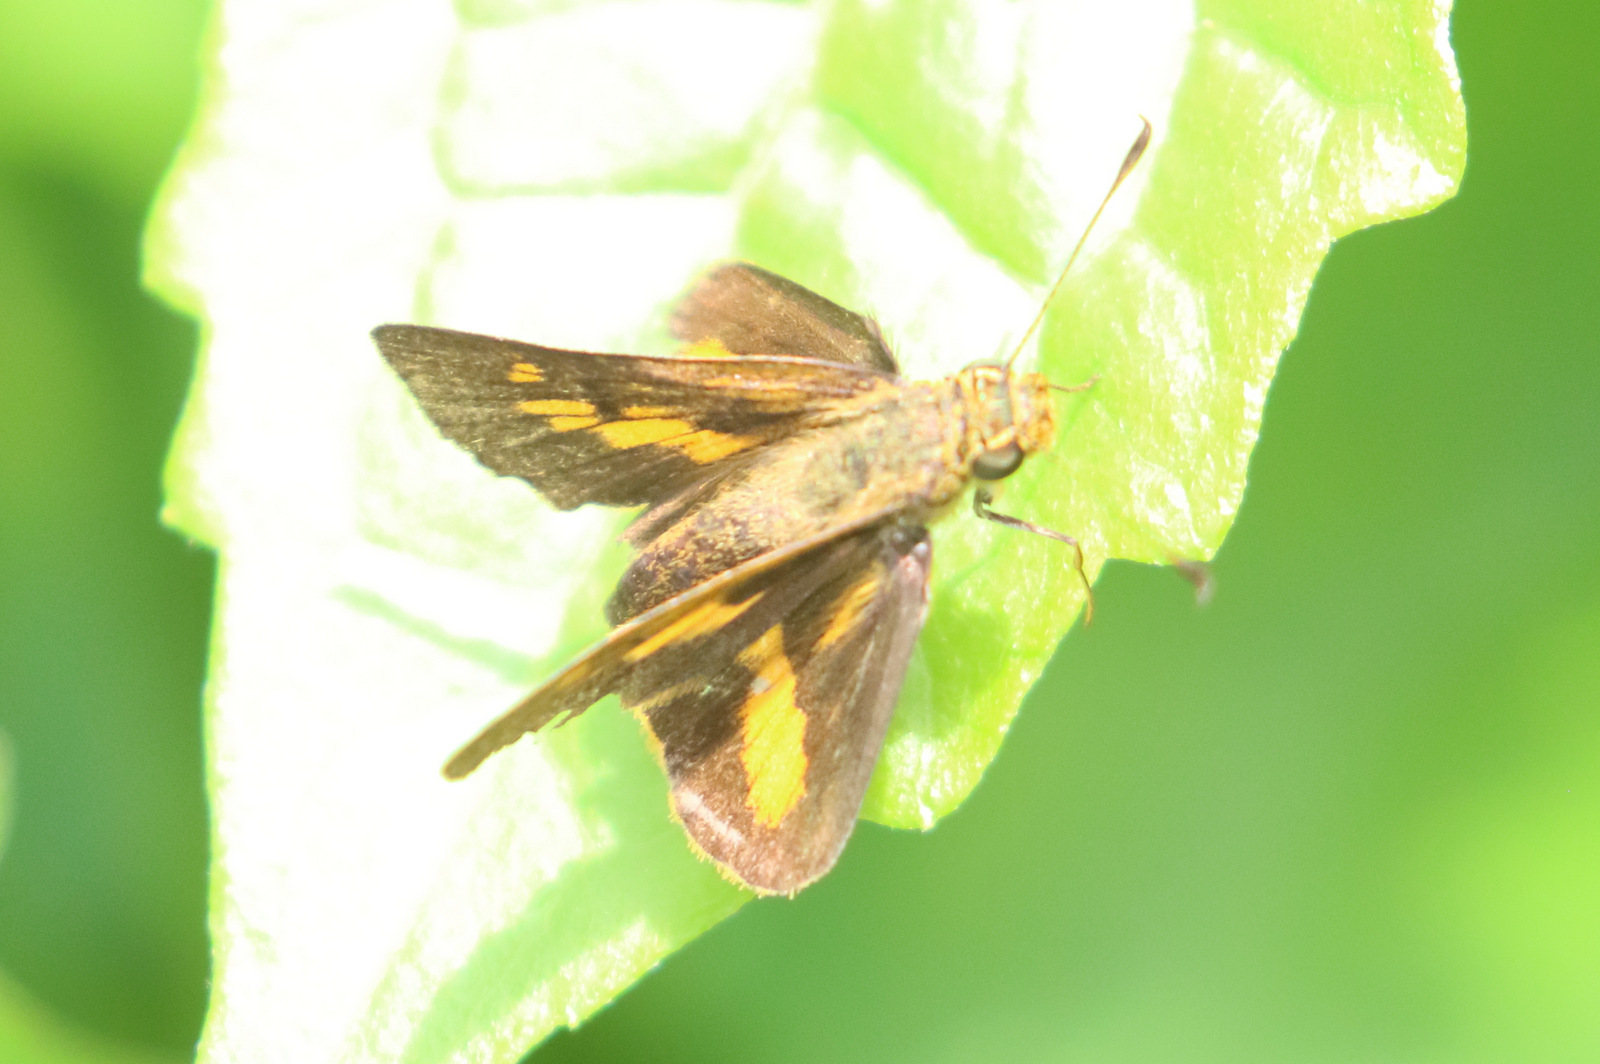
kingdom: Animalia
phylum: Arthropoda
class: Insecta
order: Lepidoptera
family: Hesperiidae
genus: Oriens
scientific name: Oriens augustula
